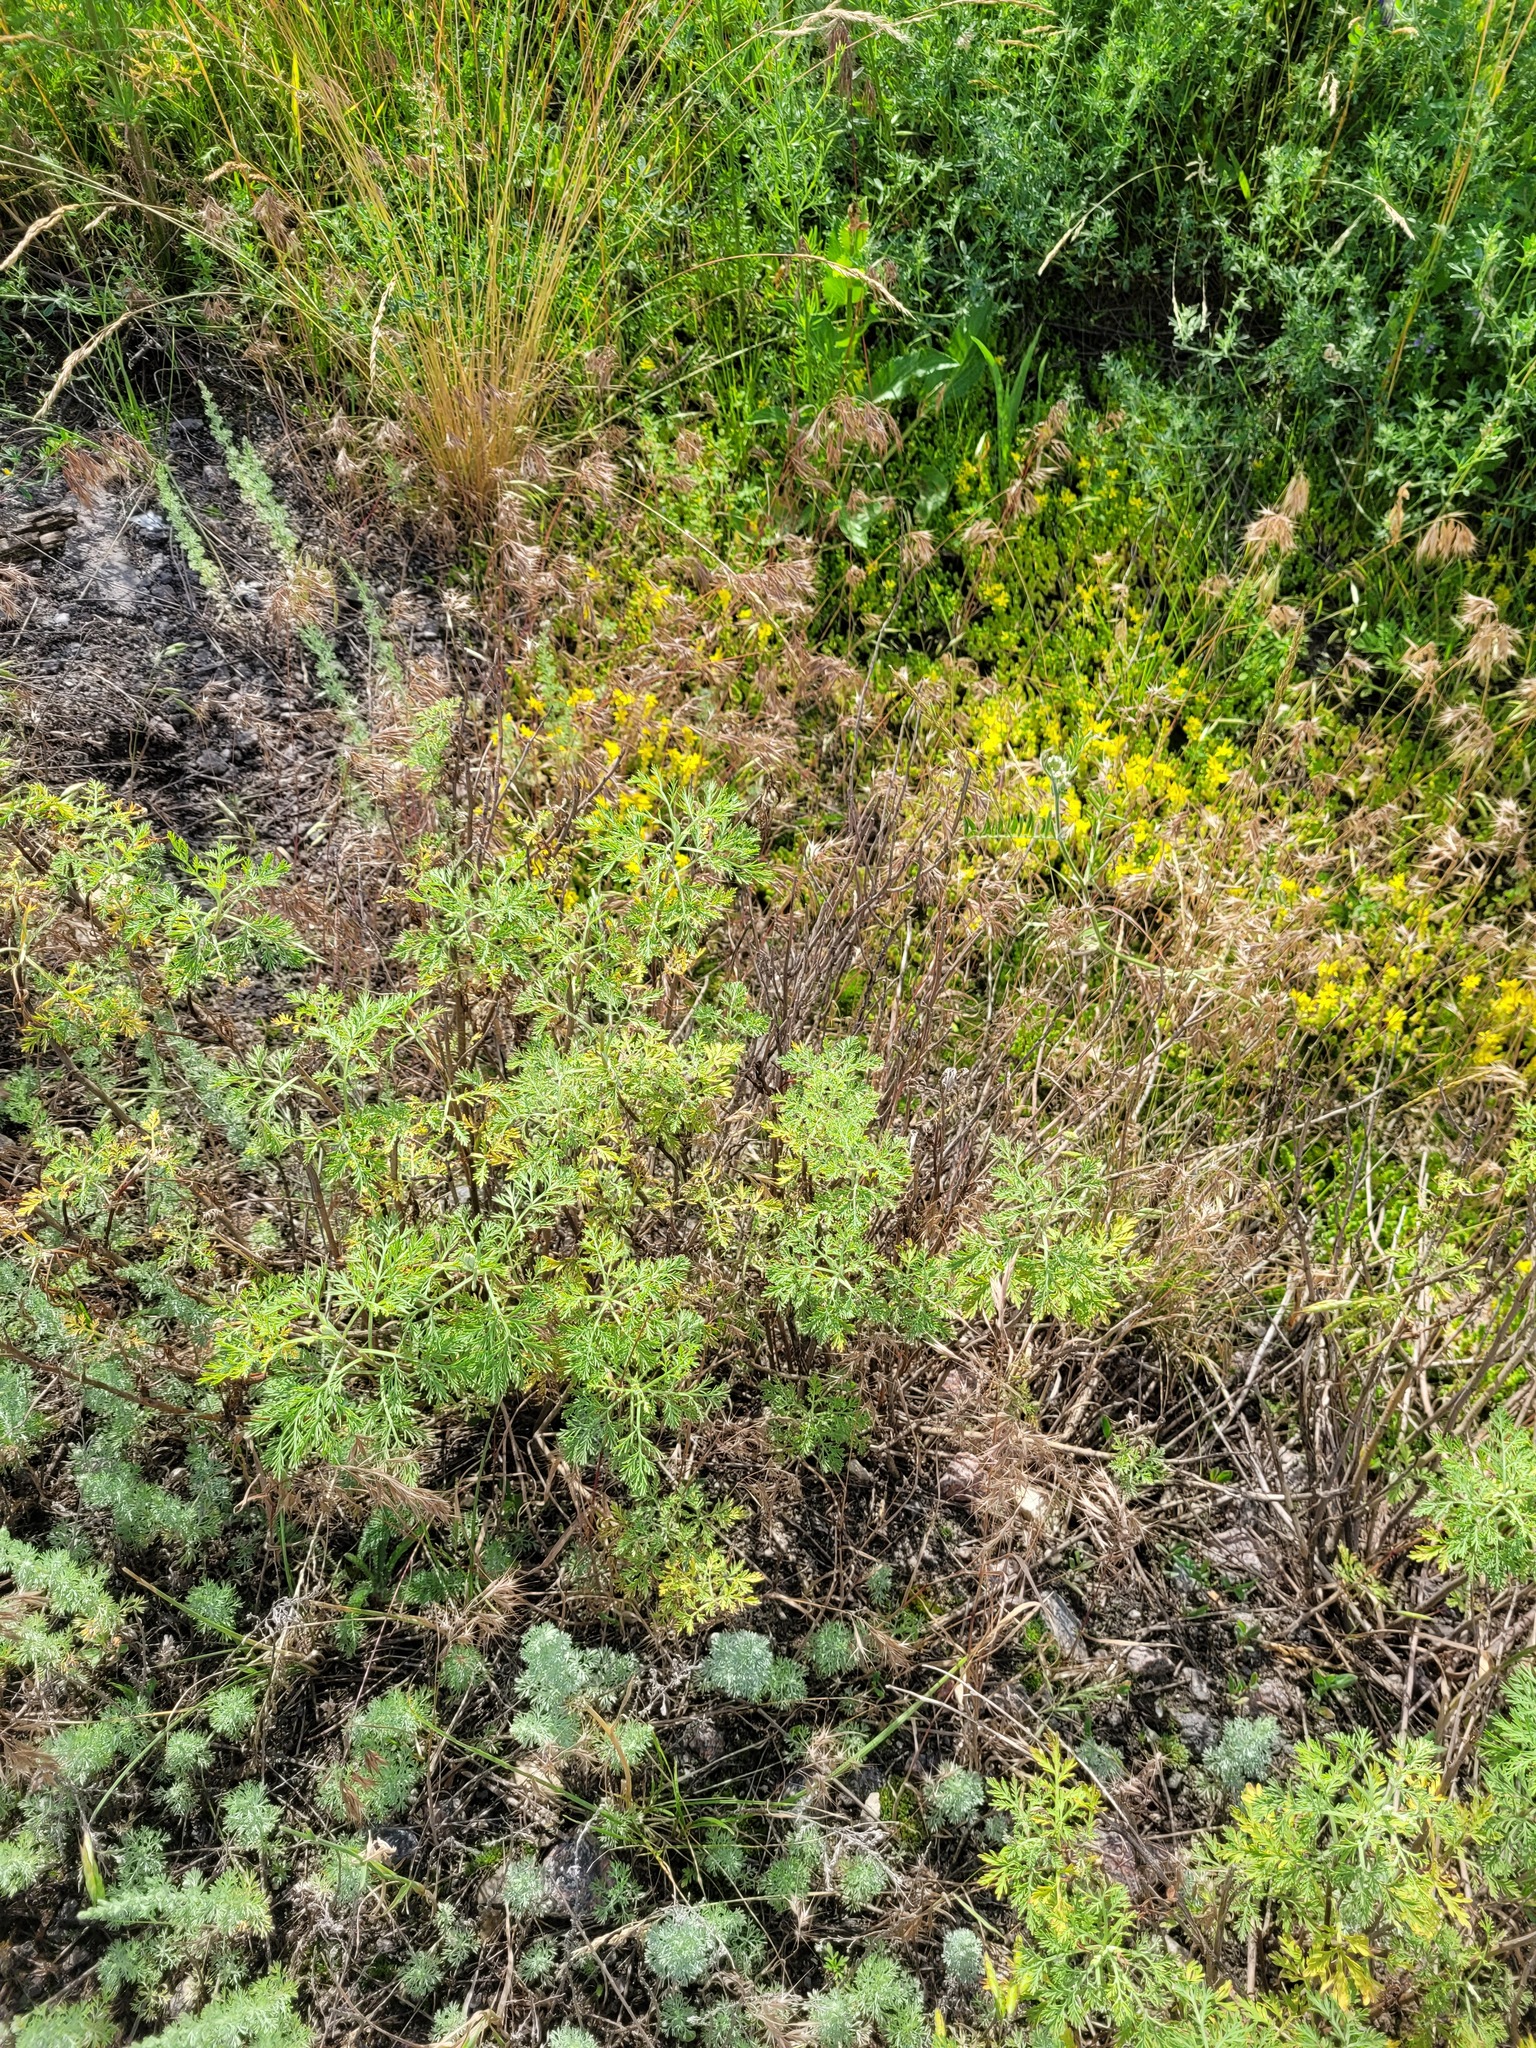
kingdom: Plantae
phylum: Tracheophyta
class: Magnoliopsida
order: Asterales
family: Asteraceae
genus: Artemisia
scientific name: Artemisia abrotanum
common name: Southernwood
